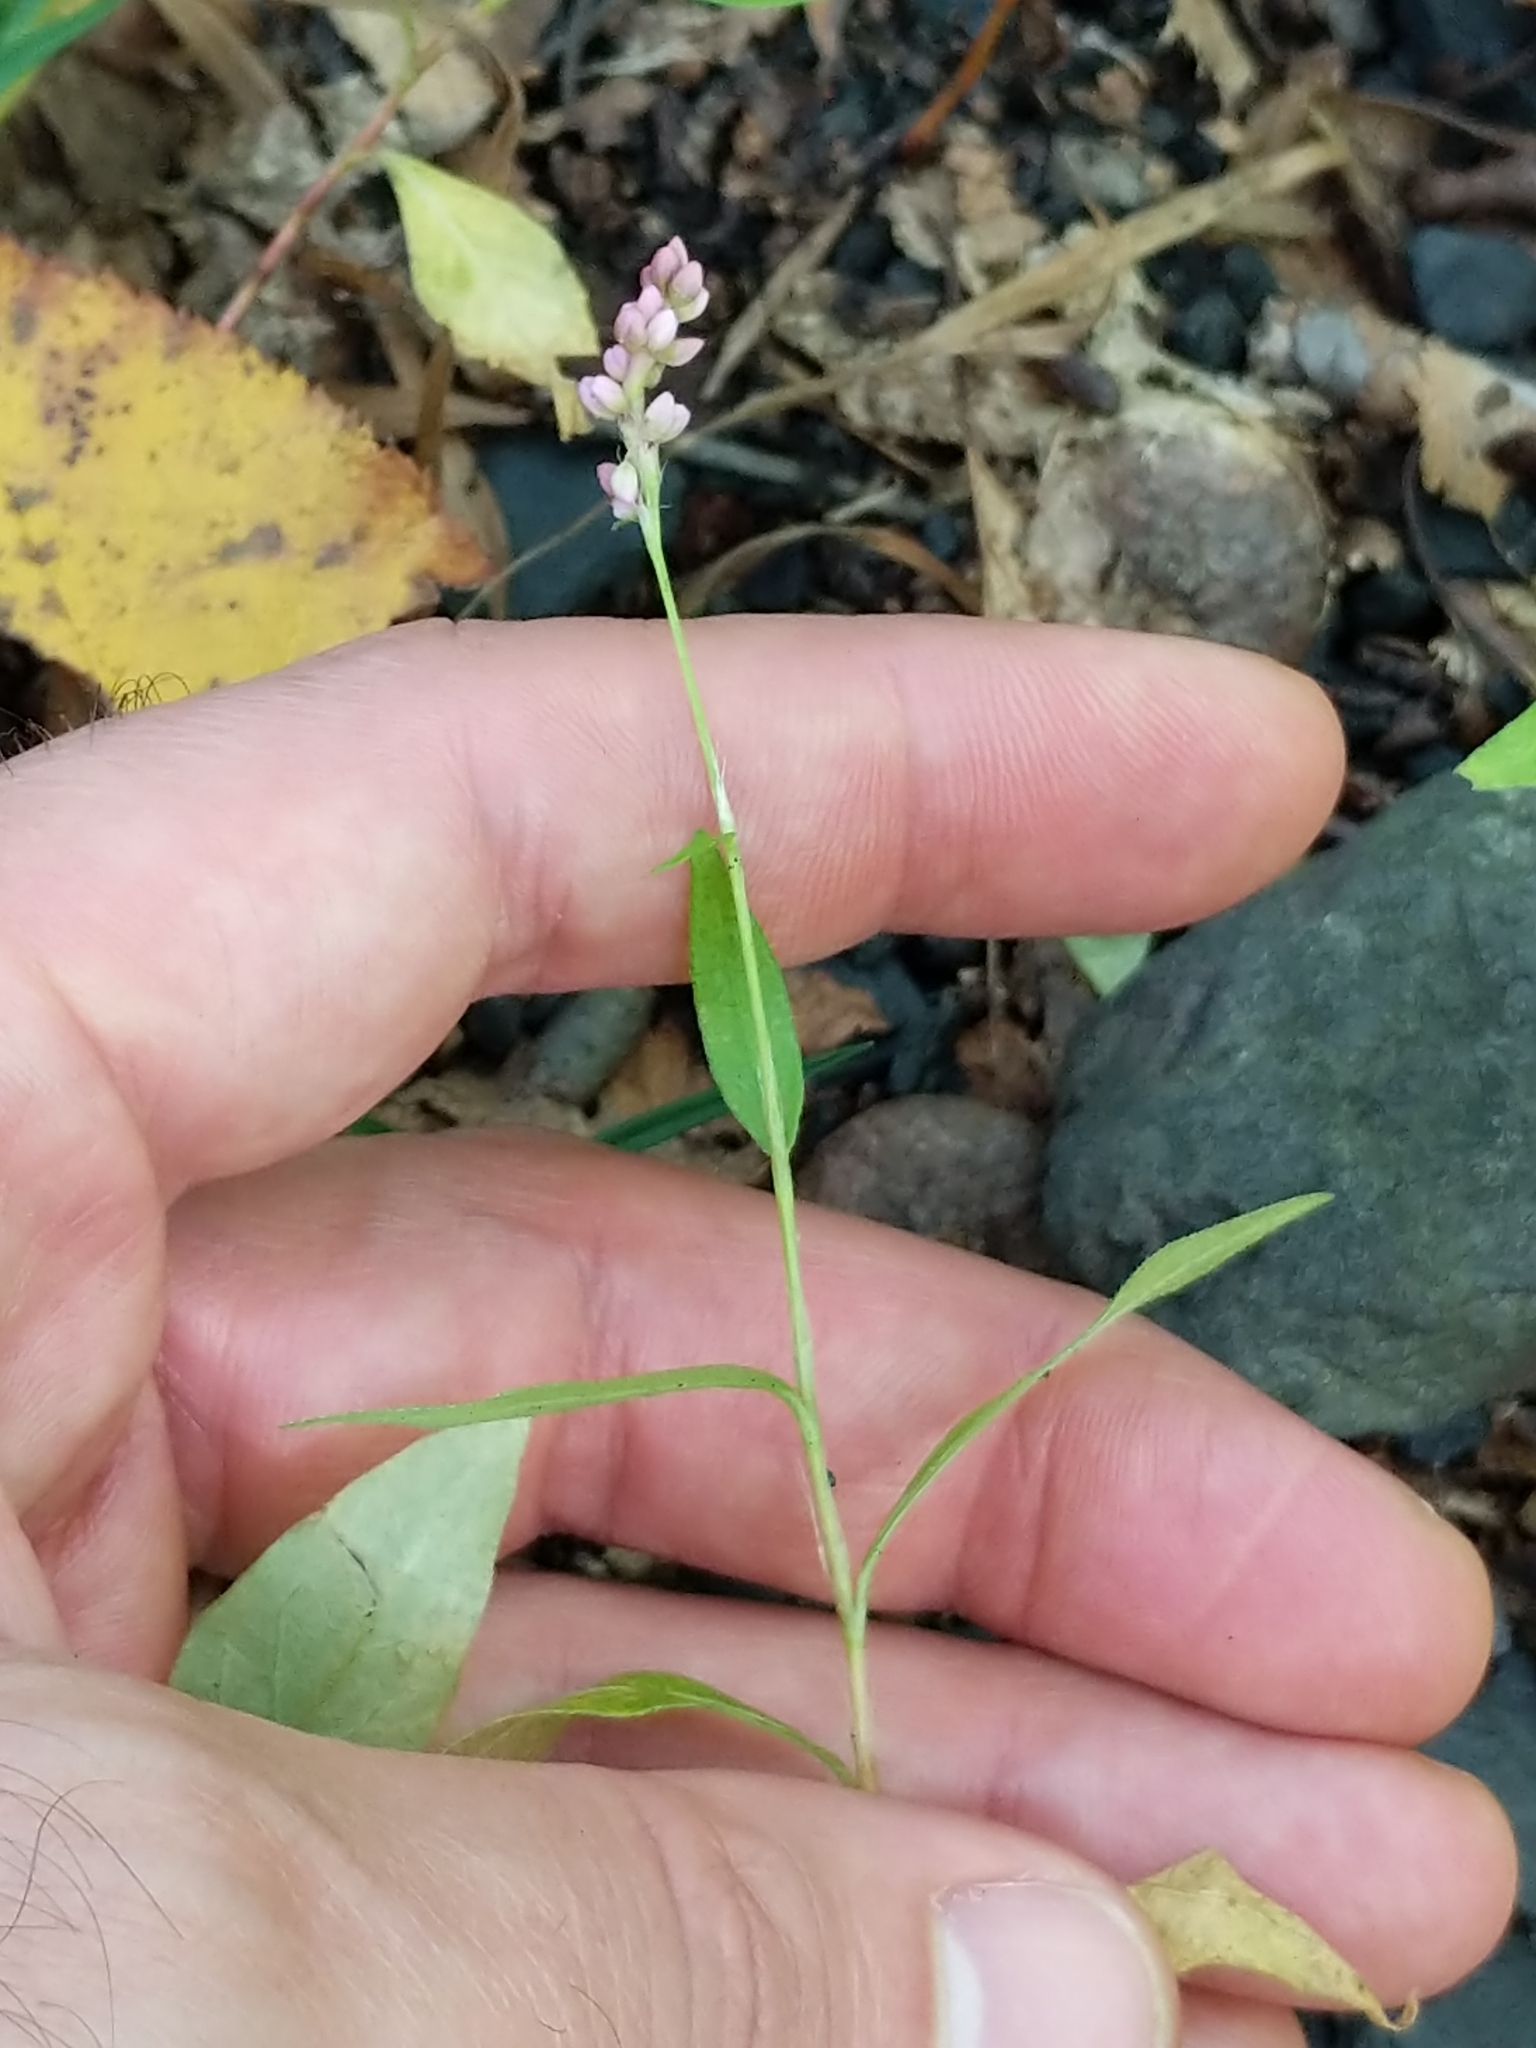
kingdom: Plantae
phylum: Tracheophyta
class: Magnoliopsida
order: Caryophyllales
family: Polygonaceae
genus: Persicaria
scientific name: Persicaria longiseta
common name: Bristly lady's-thumb
